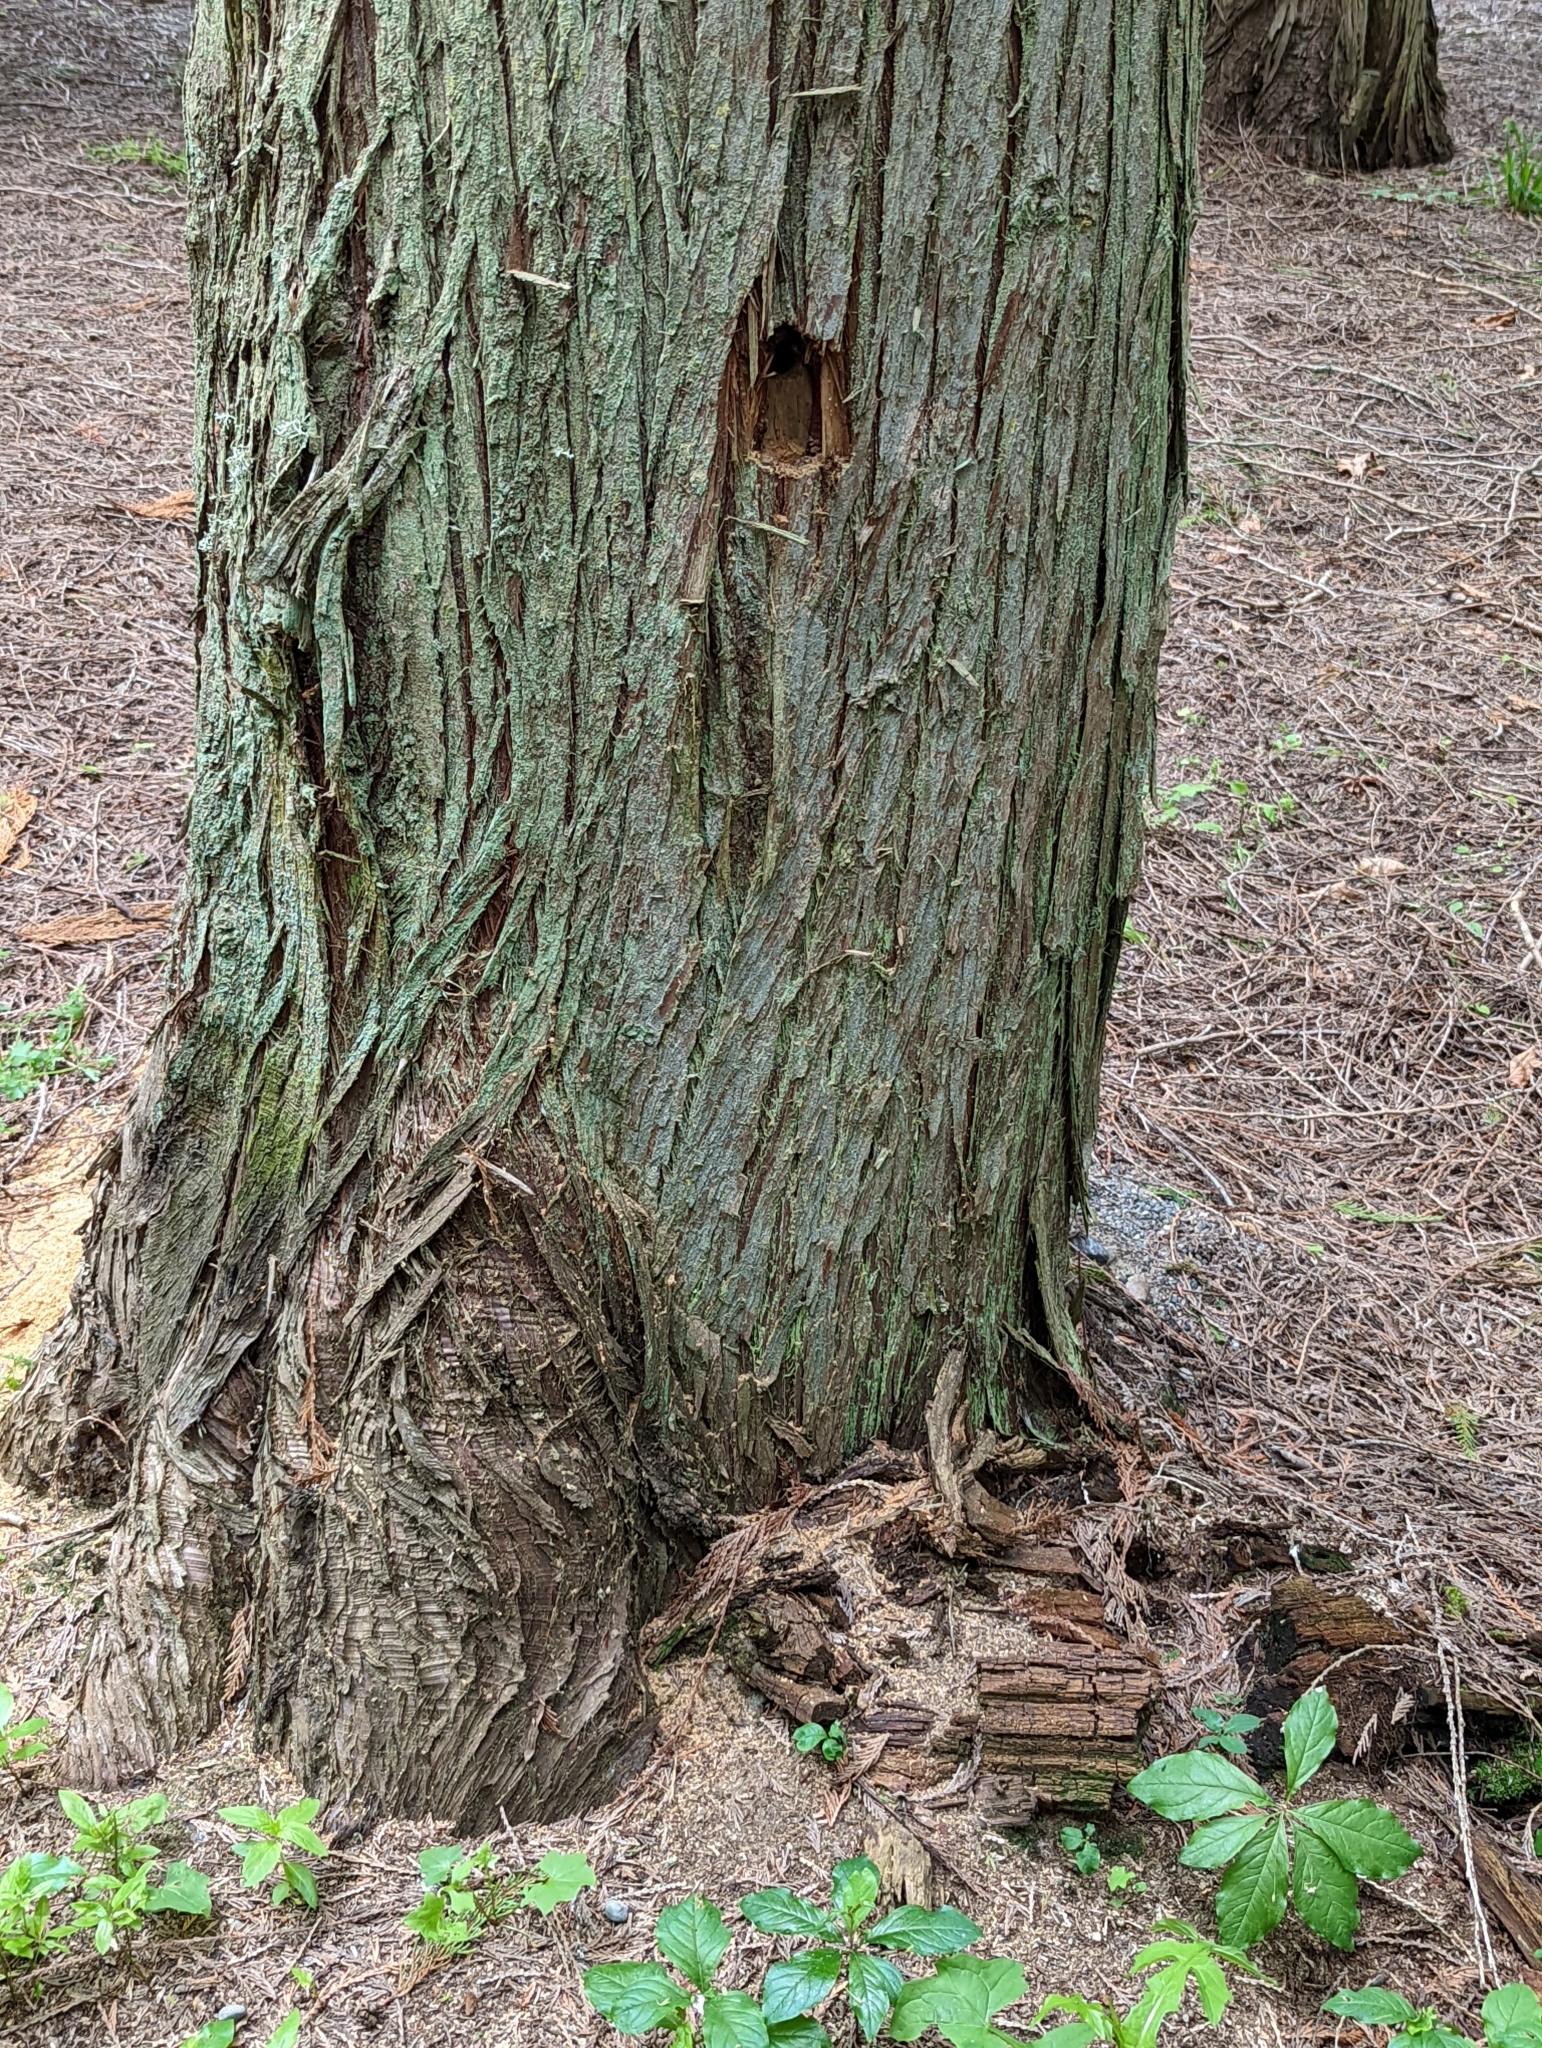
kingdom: Animalia
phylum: Arthropoda
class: Insecta
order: Hymenoptera
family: Formicidae
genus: Camponotus
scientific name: Camponotus modoc
